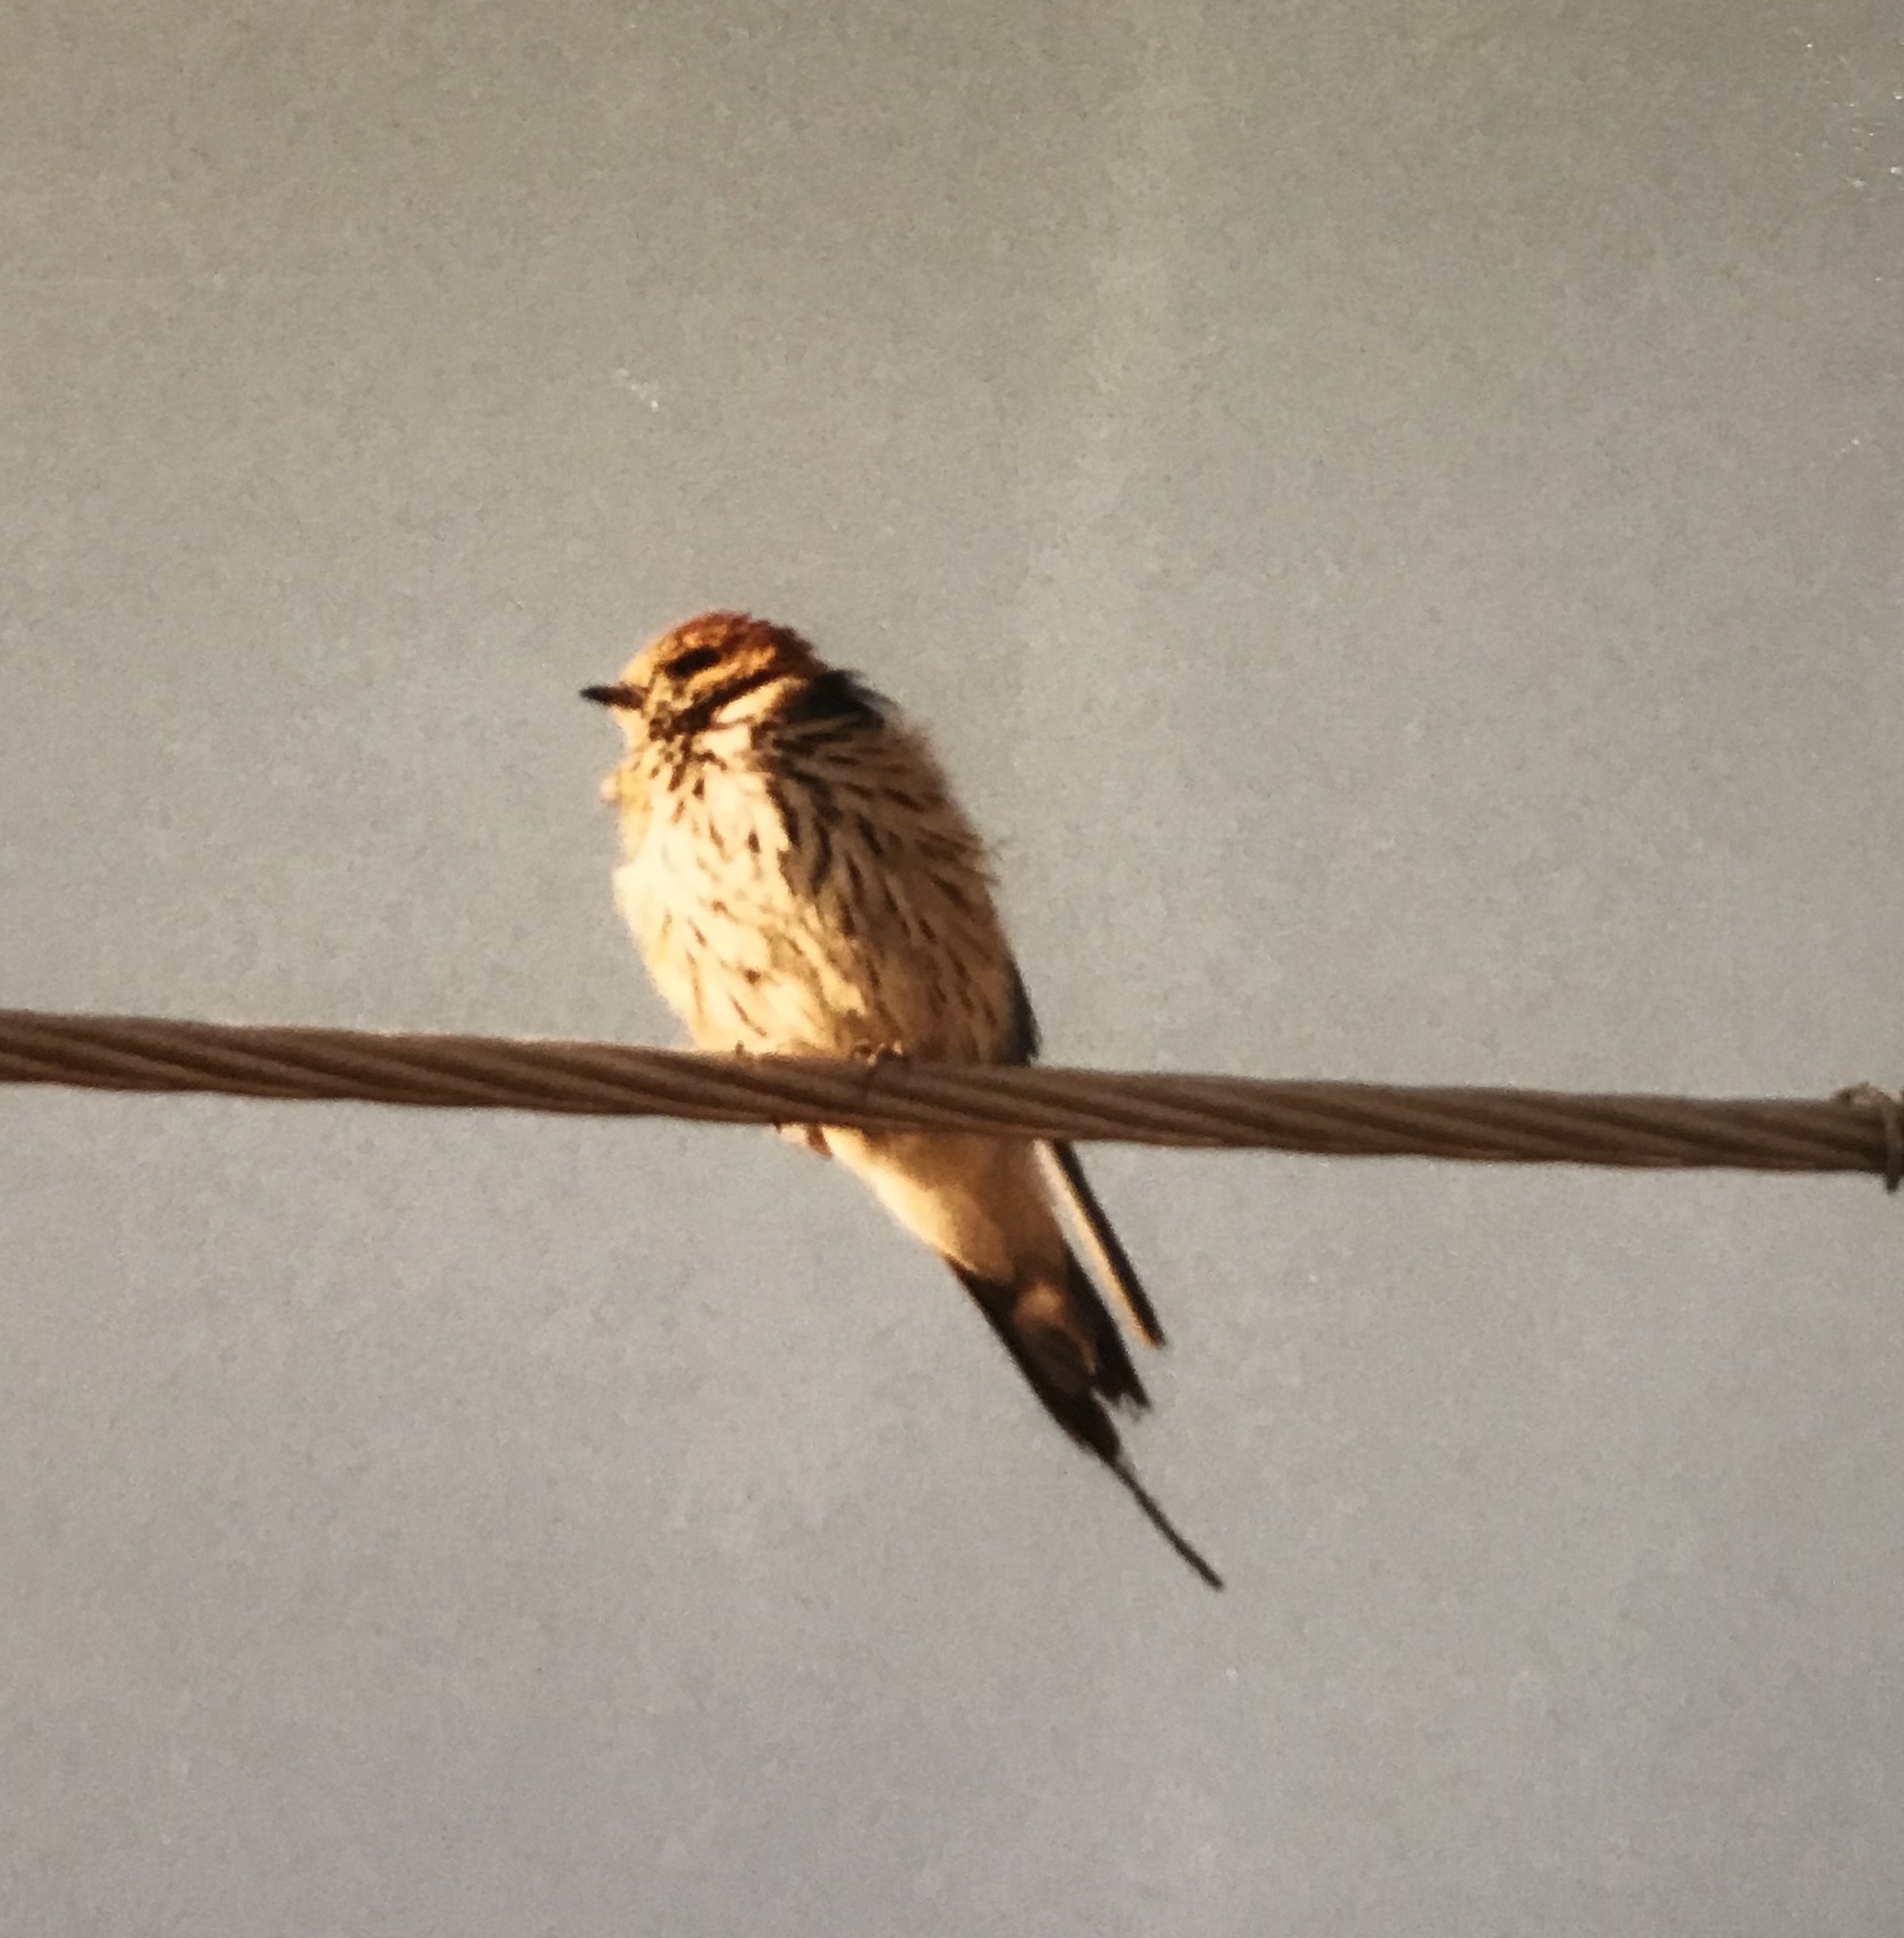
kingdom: Animalia
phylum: Chordata
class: Aves
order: Passeriformes
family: Hirundinidae
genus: Cecropis
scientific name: Cecropis abyssinica
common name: Lesser striped-swallow
